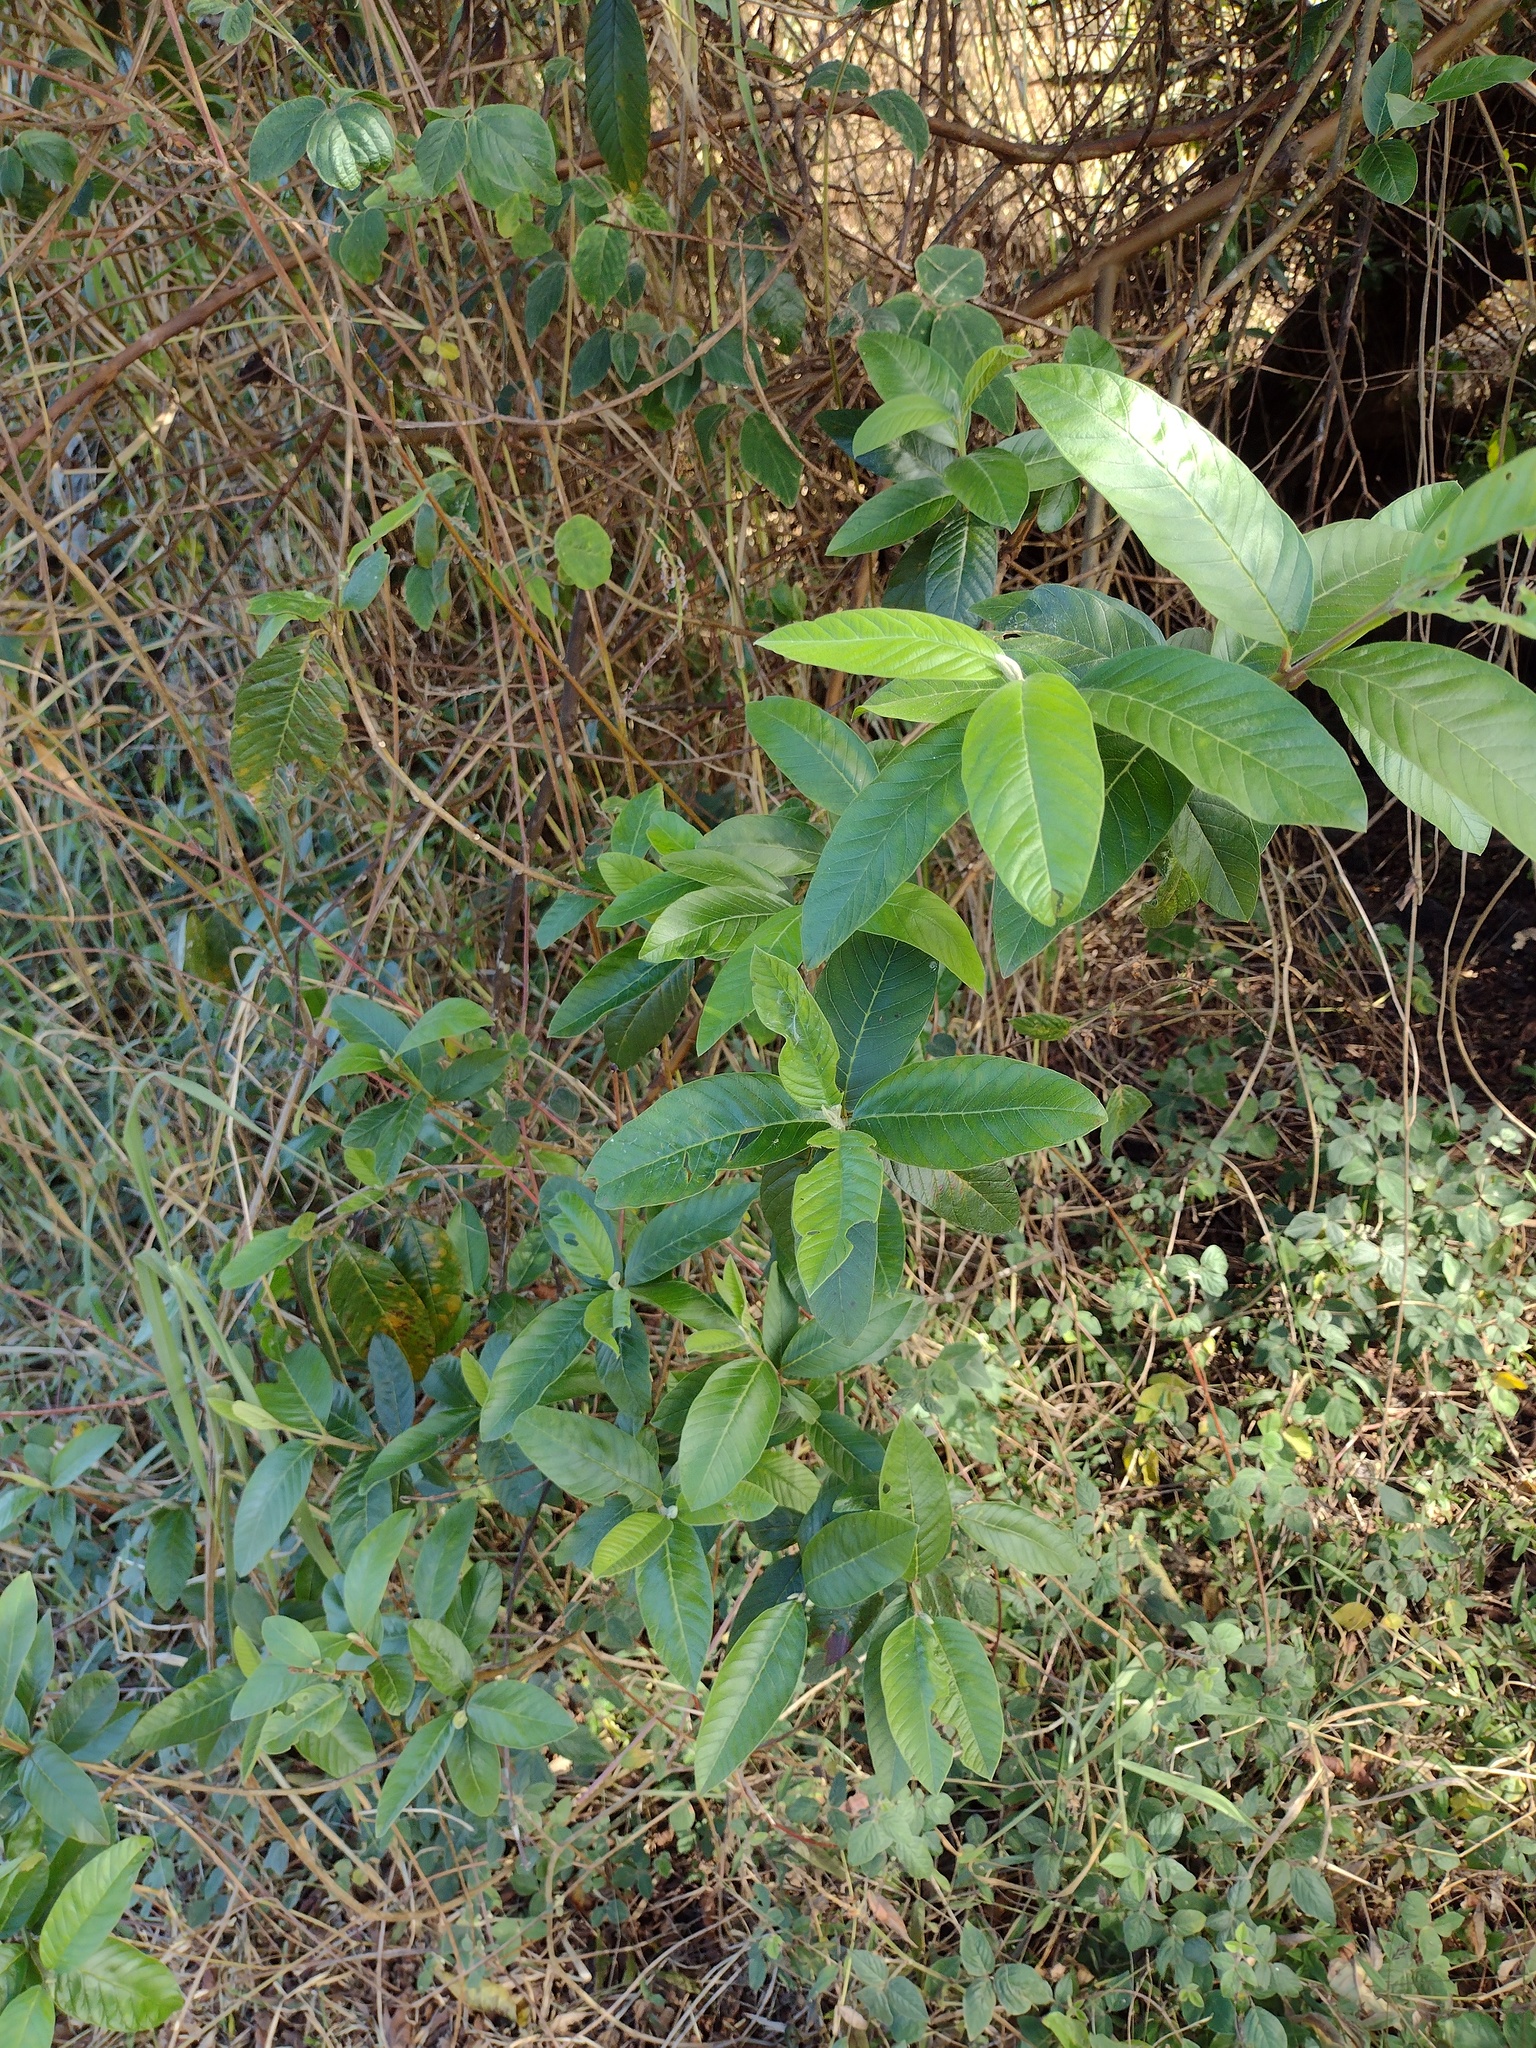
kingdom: Plantae
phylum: Tracheophyta
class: Magnoliopsida
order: Myrtales
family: Myrtaceae
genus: Psidium
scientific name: Psidium guajava
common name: Guava
